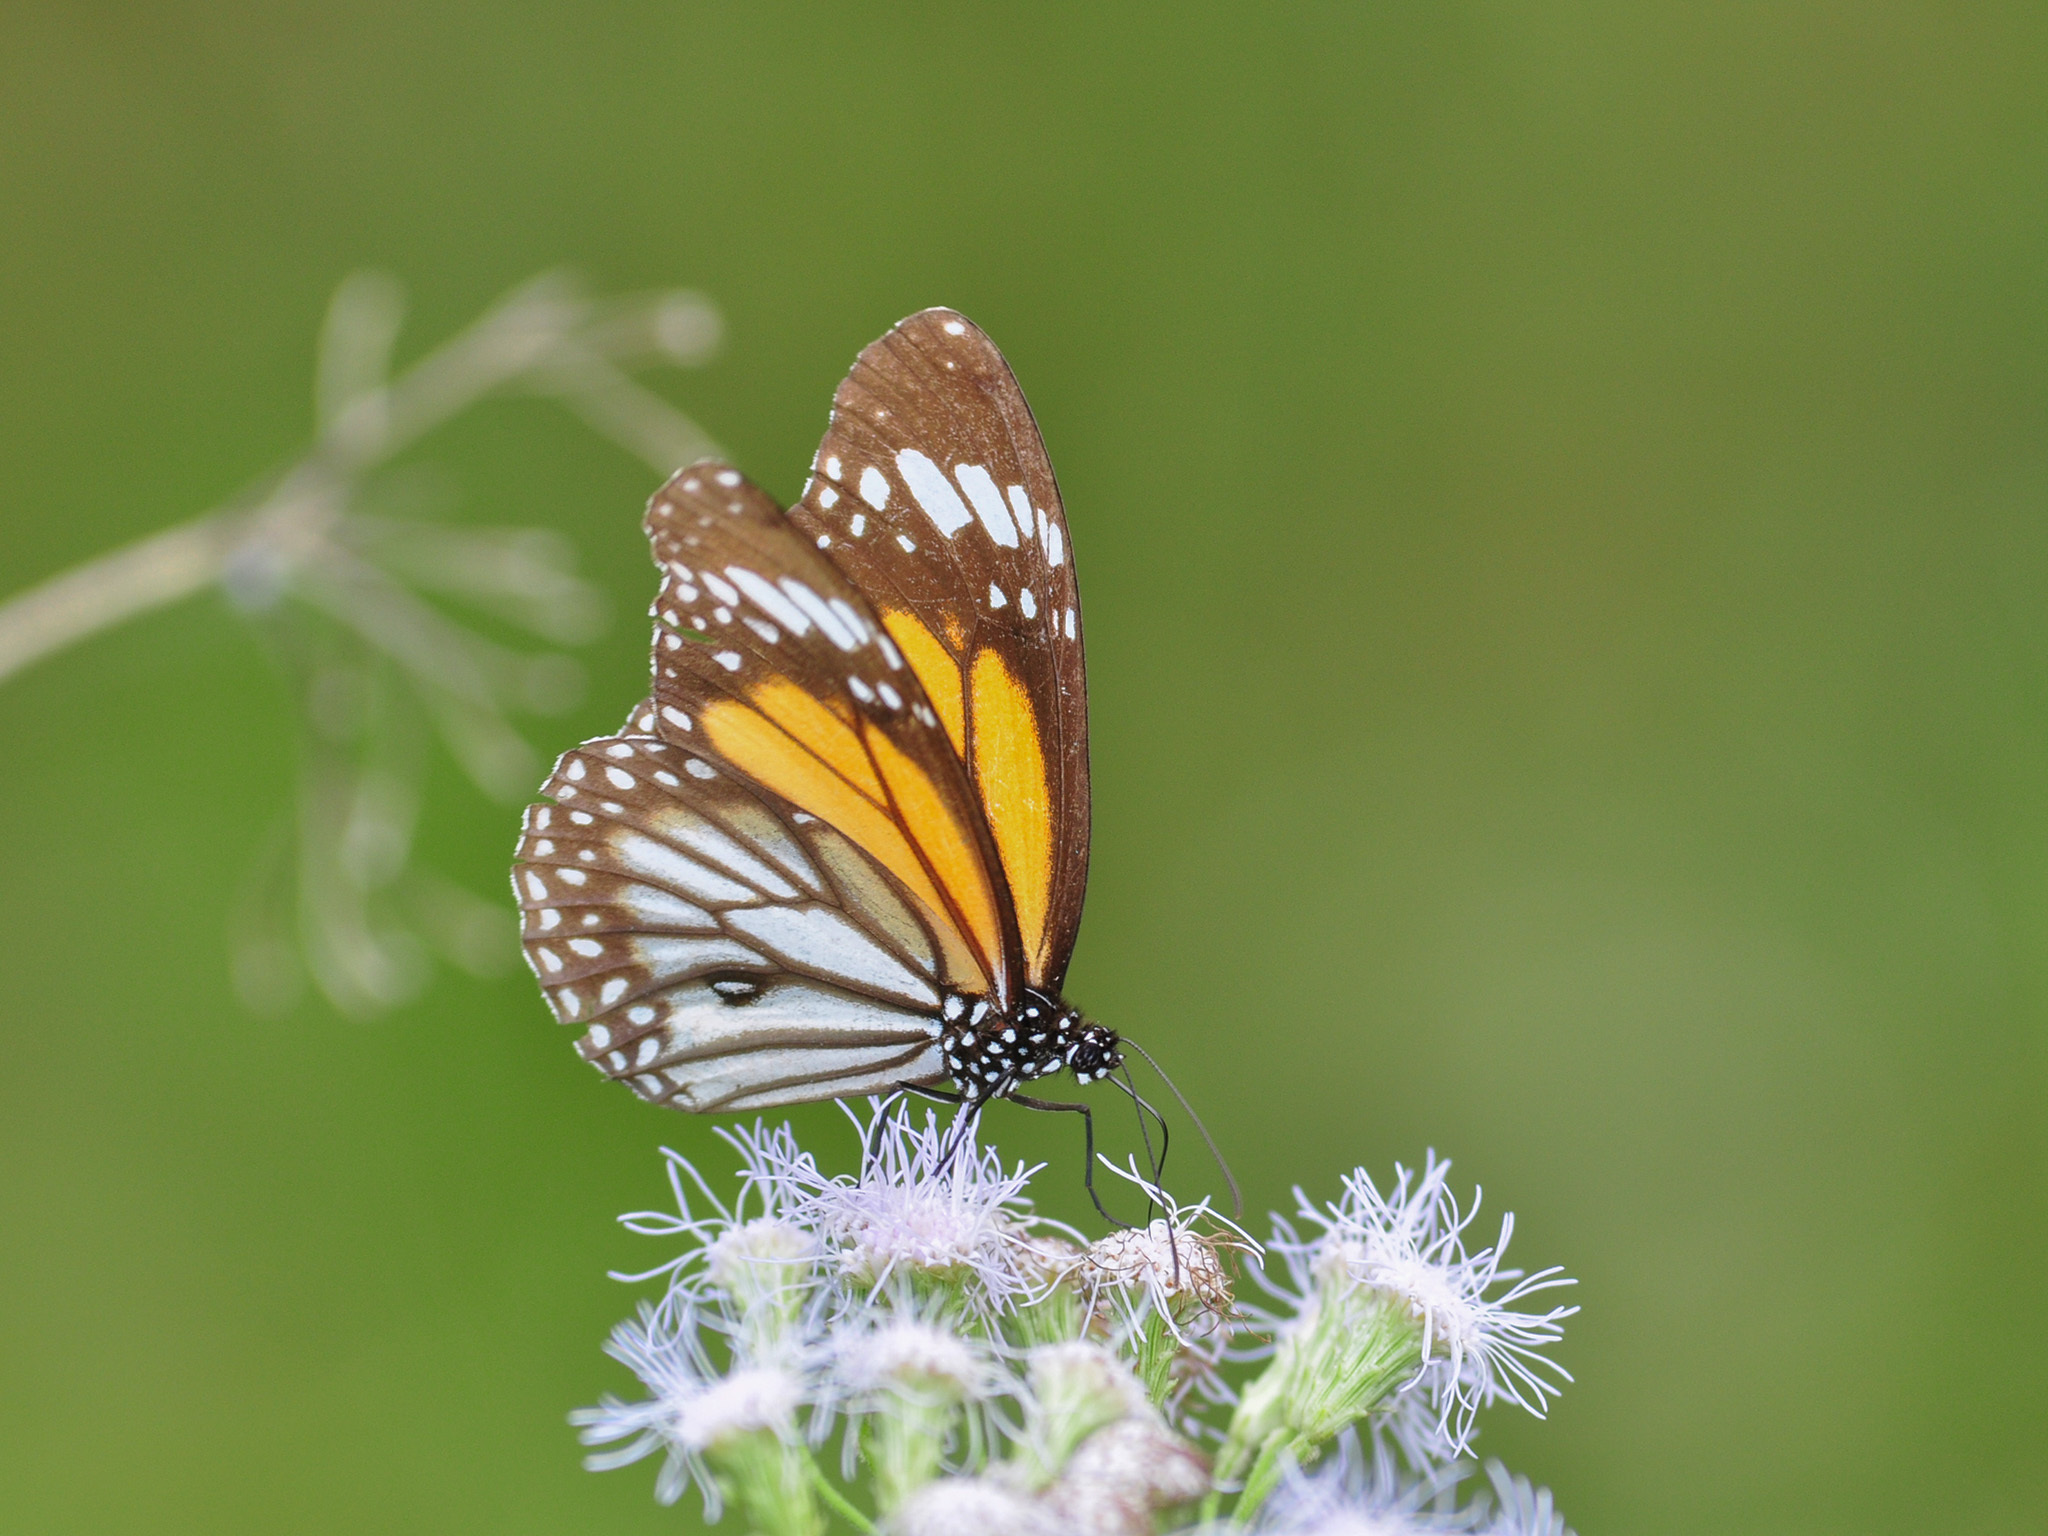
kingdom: Animalia
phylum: Arthropoda
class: Insecta
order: Lepidoptera
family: Nymphalidae
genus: Danaus
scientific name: Danaus melanippus
